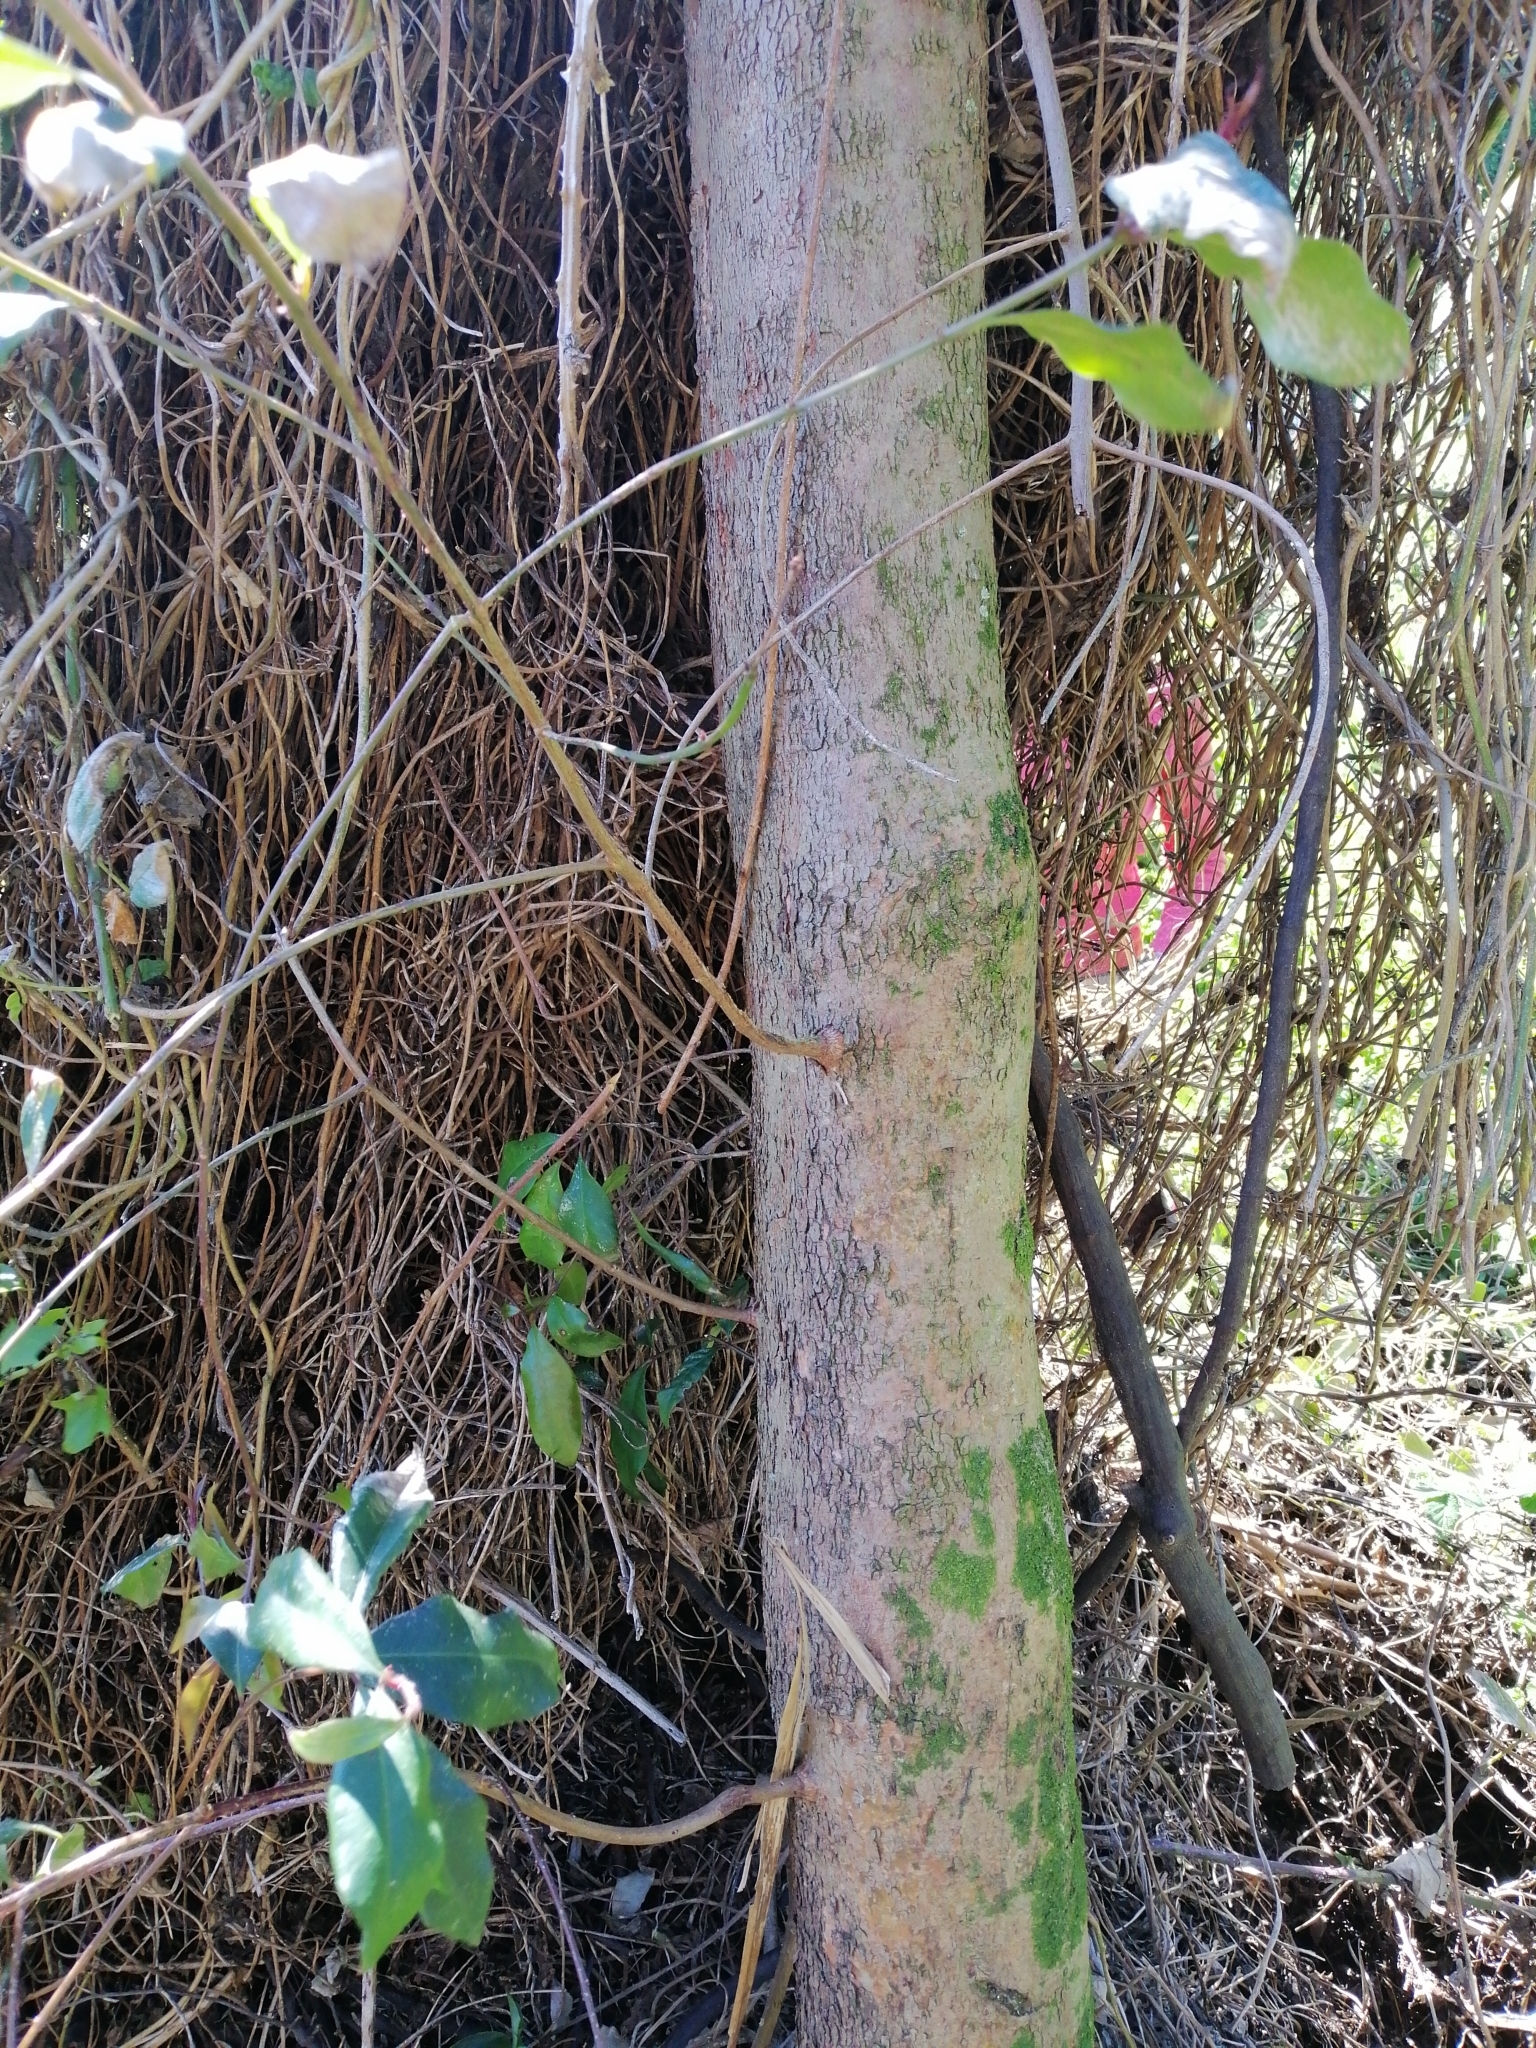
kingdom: Plantae
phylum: Tracheophyta
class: Magnoliopsida
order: Myrtales
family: Myrtaceae
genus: Syzygium
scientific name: Syzygium smithii
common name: Lilly-pilly
